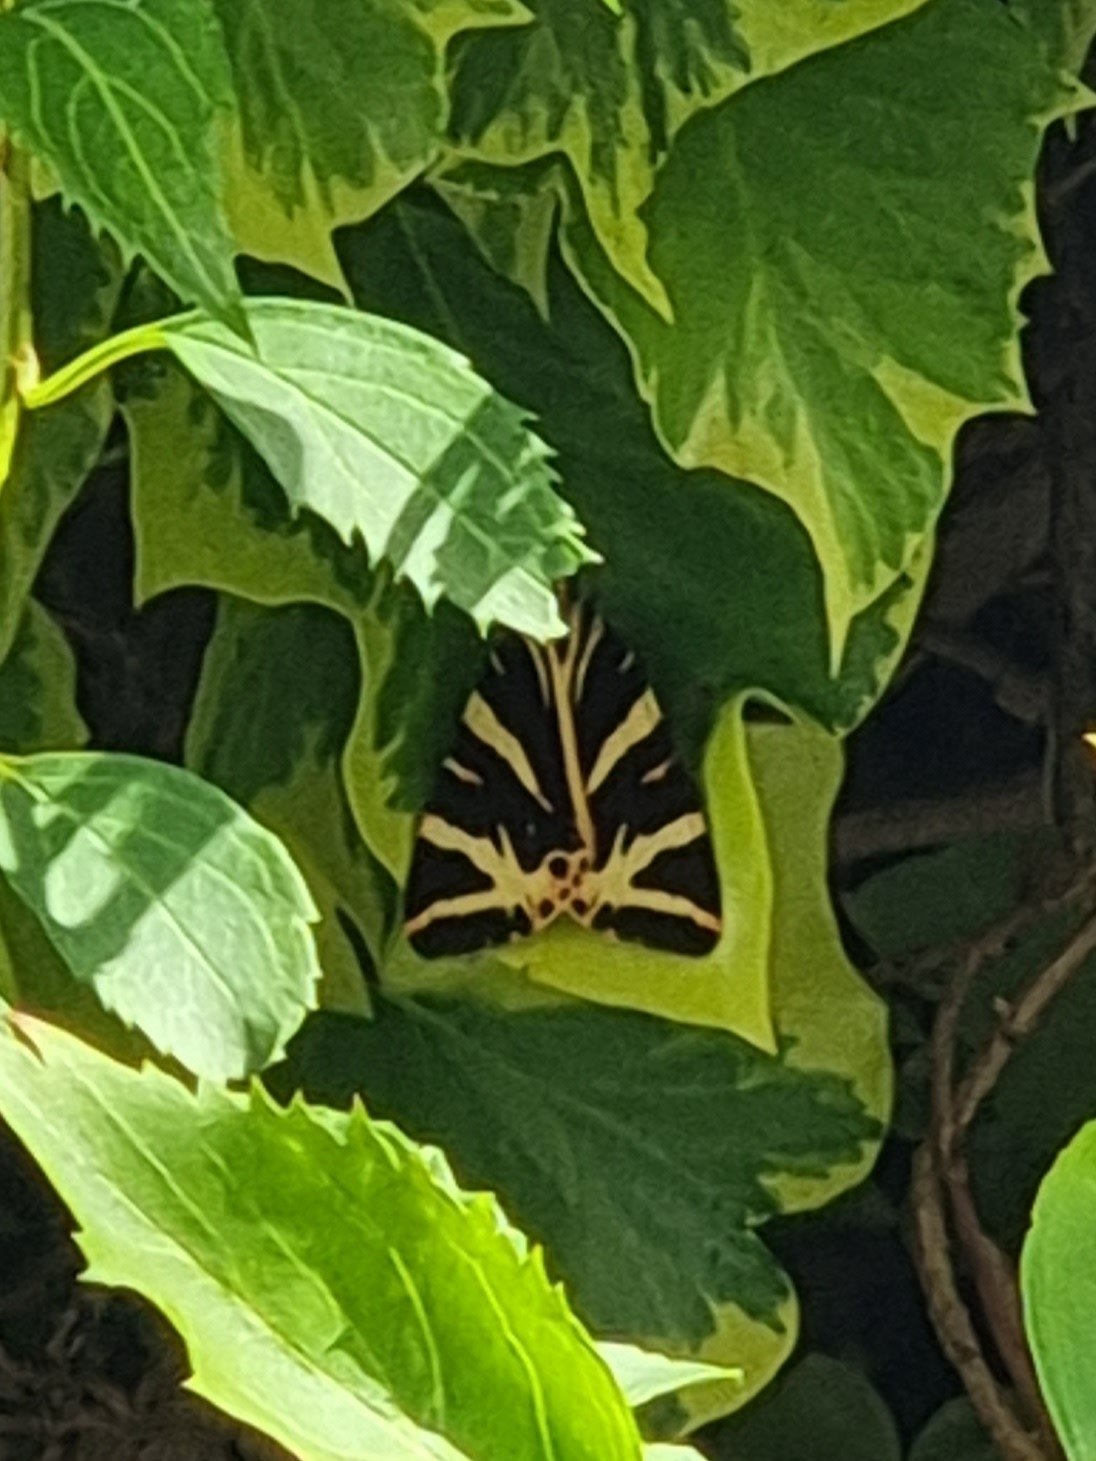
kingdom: Animalia
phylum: Arthropoda
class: Insecta
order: Lepidoptera
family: Erebidae
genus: Euplagia
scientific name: Euplagia quadripunctaria
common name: Jersey tiger
